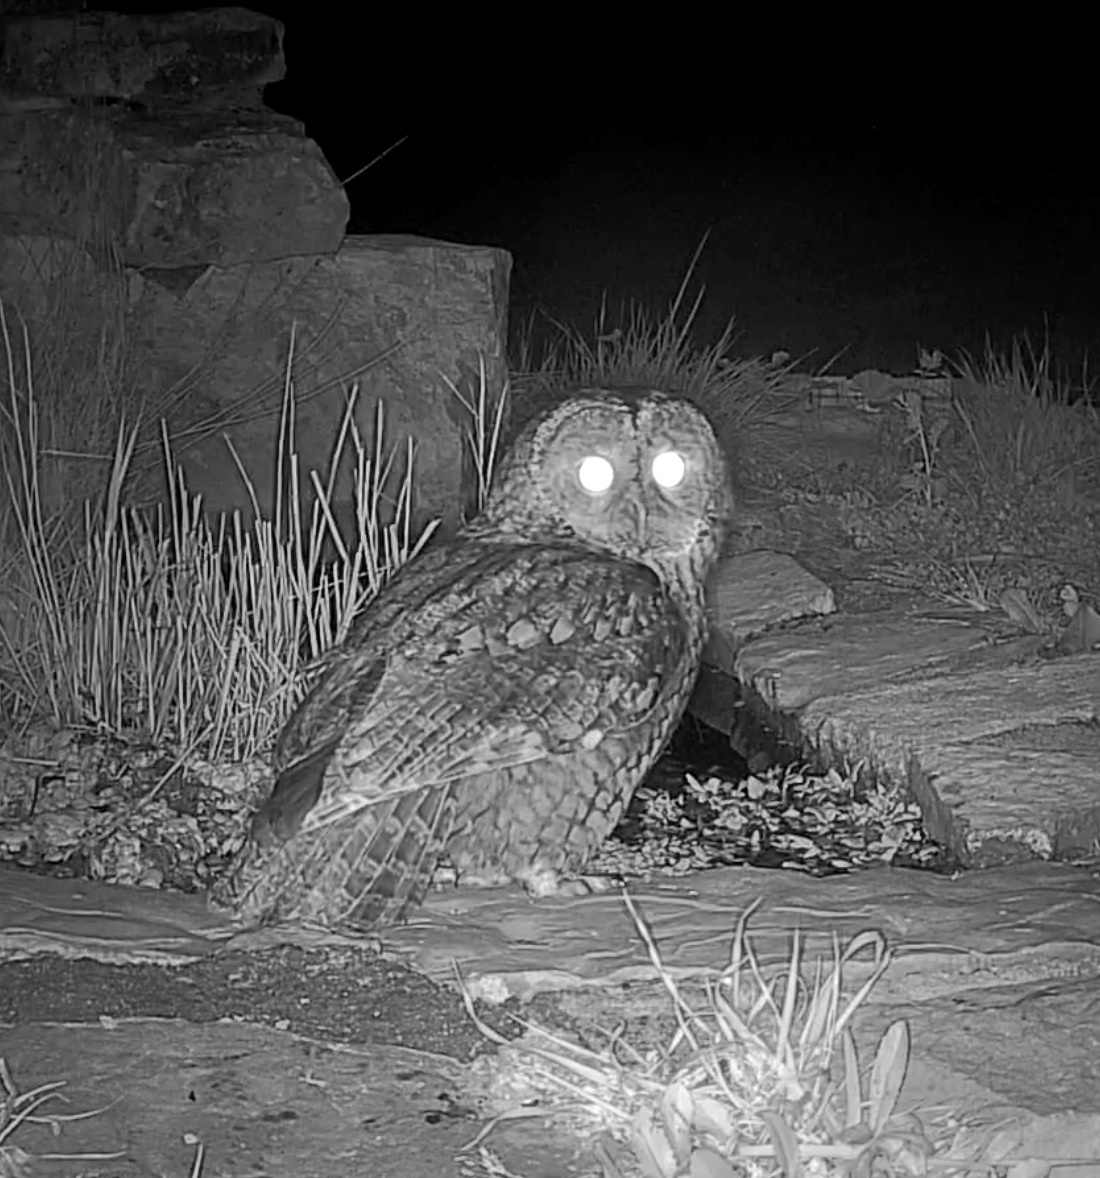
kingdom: Animalia
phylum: Chordata
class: Aves
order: Strigiformes
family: Strigidae
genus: Strix
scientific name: Strix aluco
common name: Tawny owl
